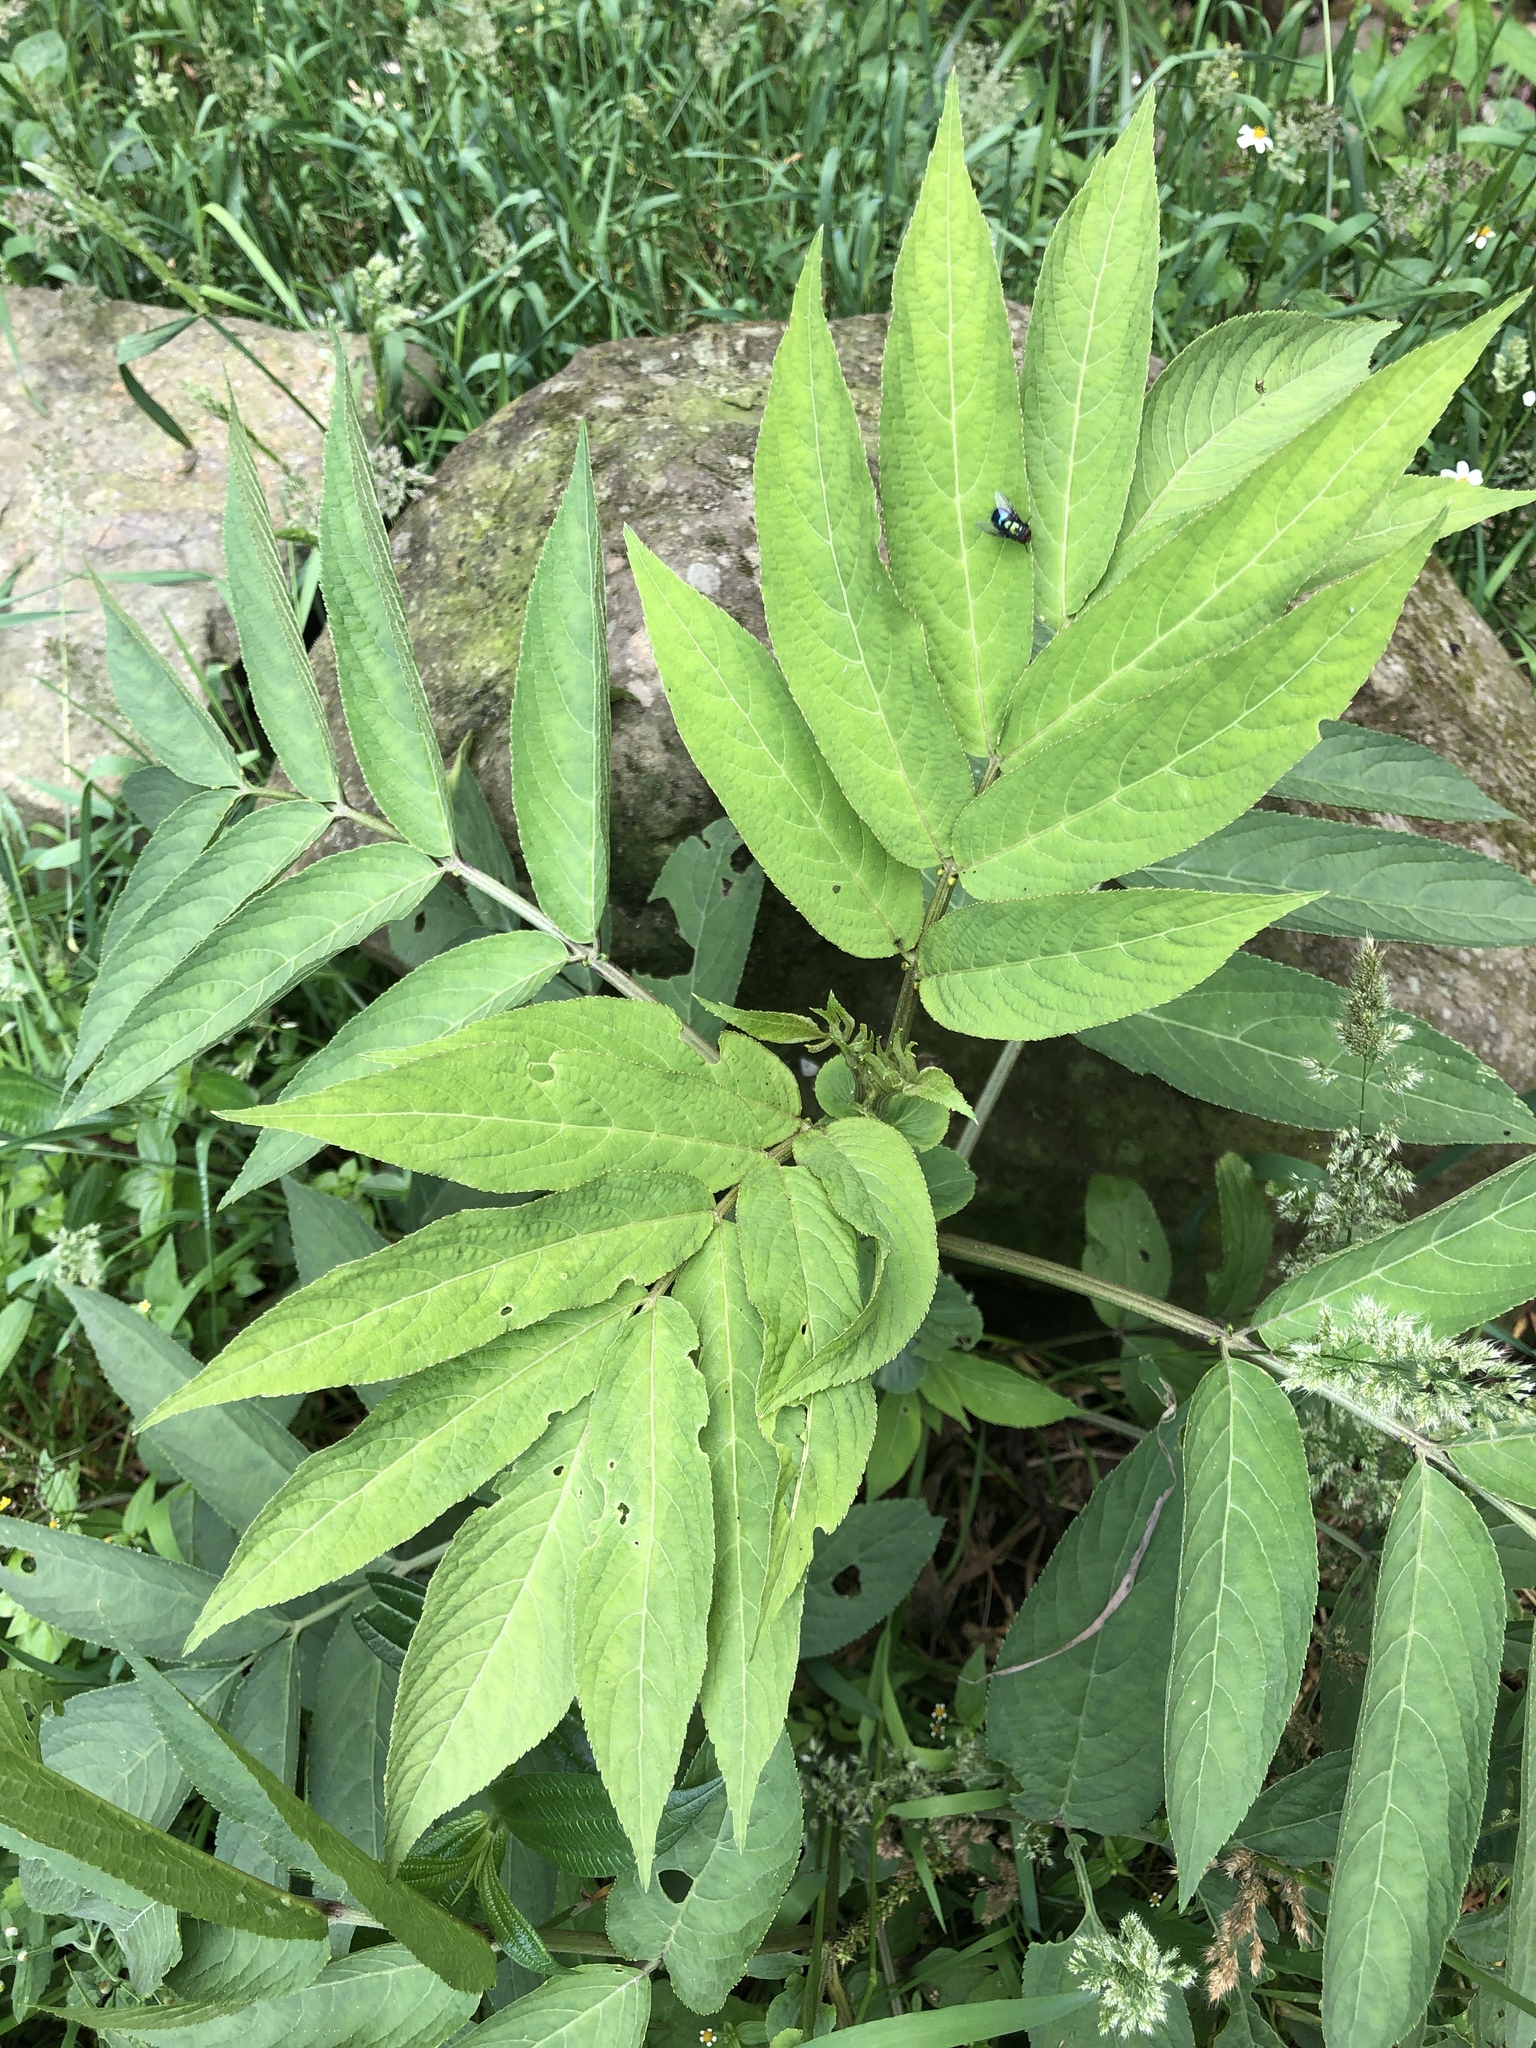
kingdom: Plantae
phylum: Tracheophyta
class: Magnoliopsida
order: Dipsacales
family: Viburnaceae
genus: Sambucus
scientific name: Sambucus javanica
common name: Chinese elder
